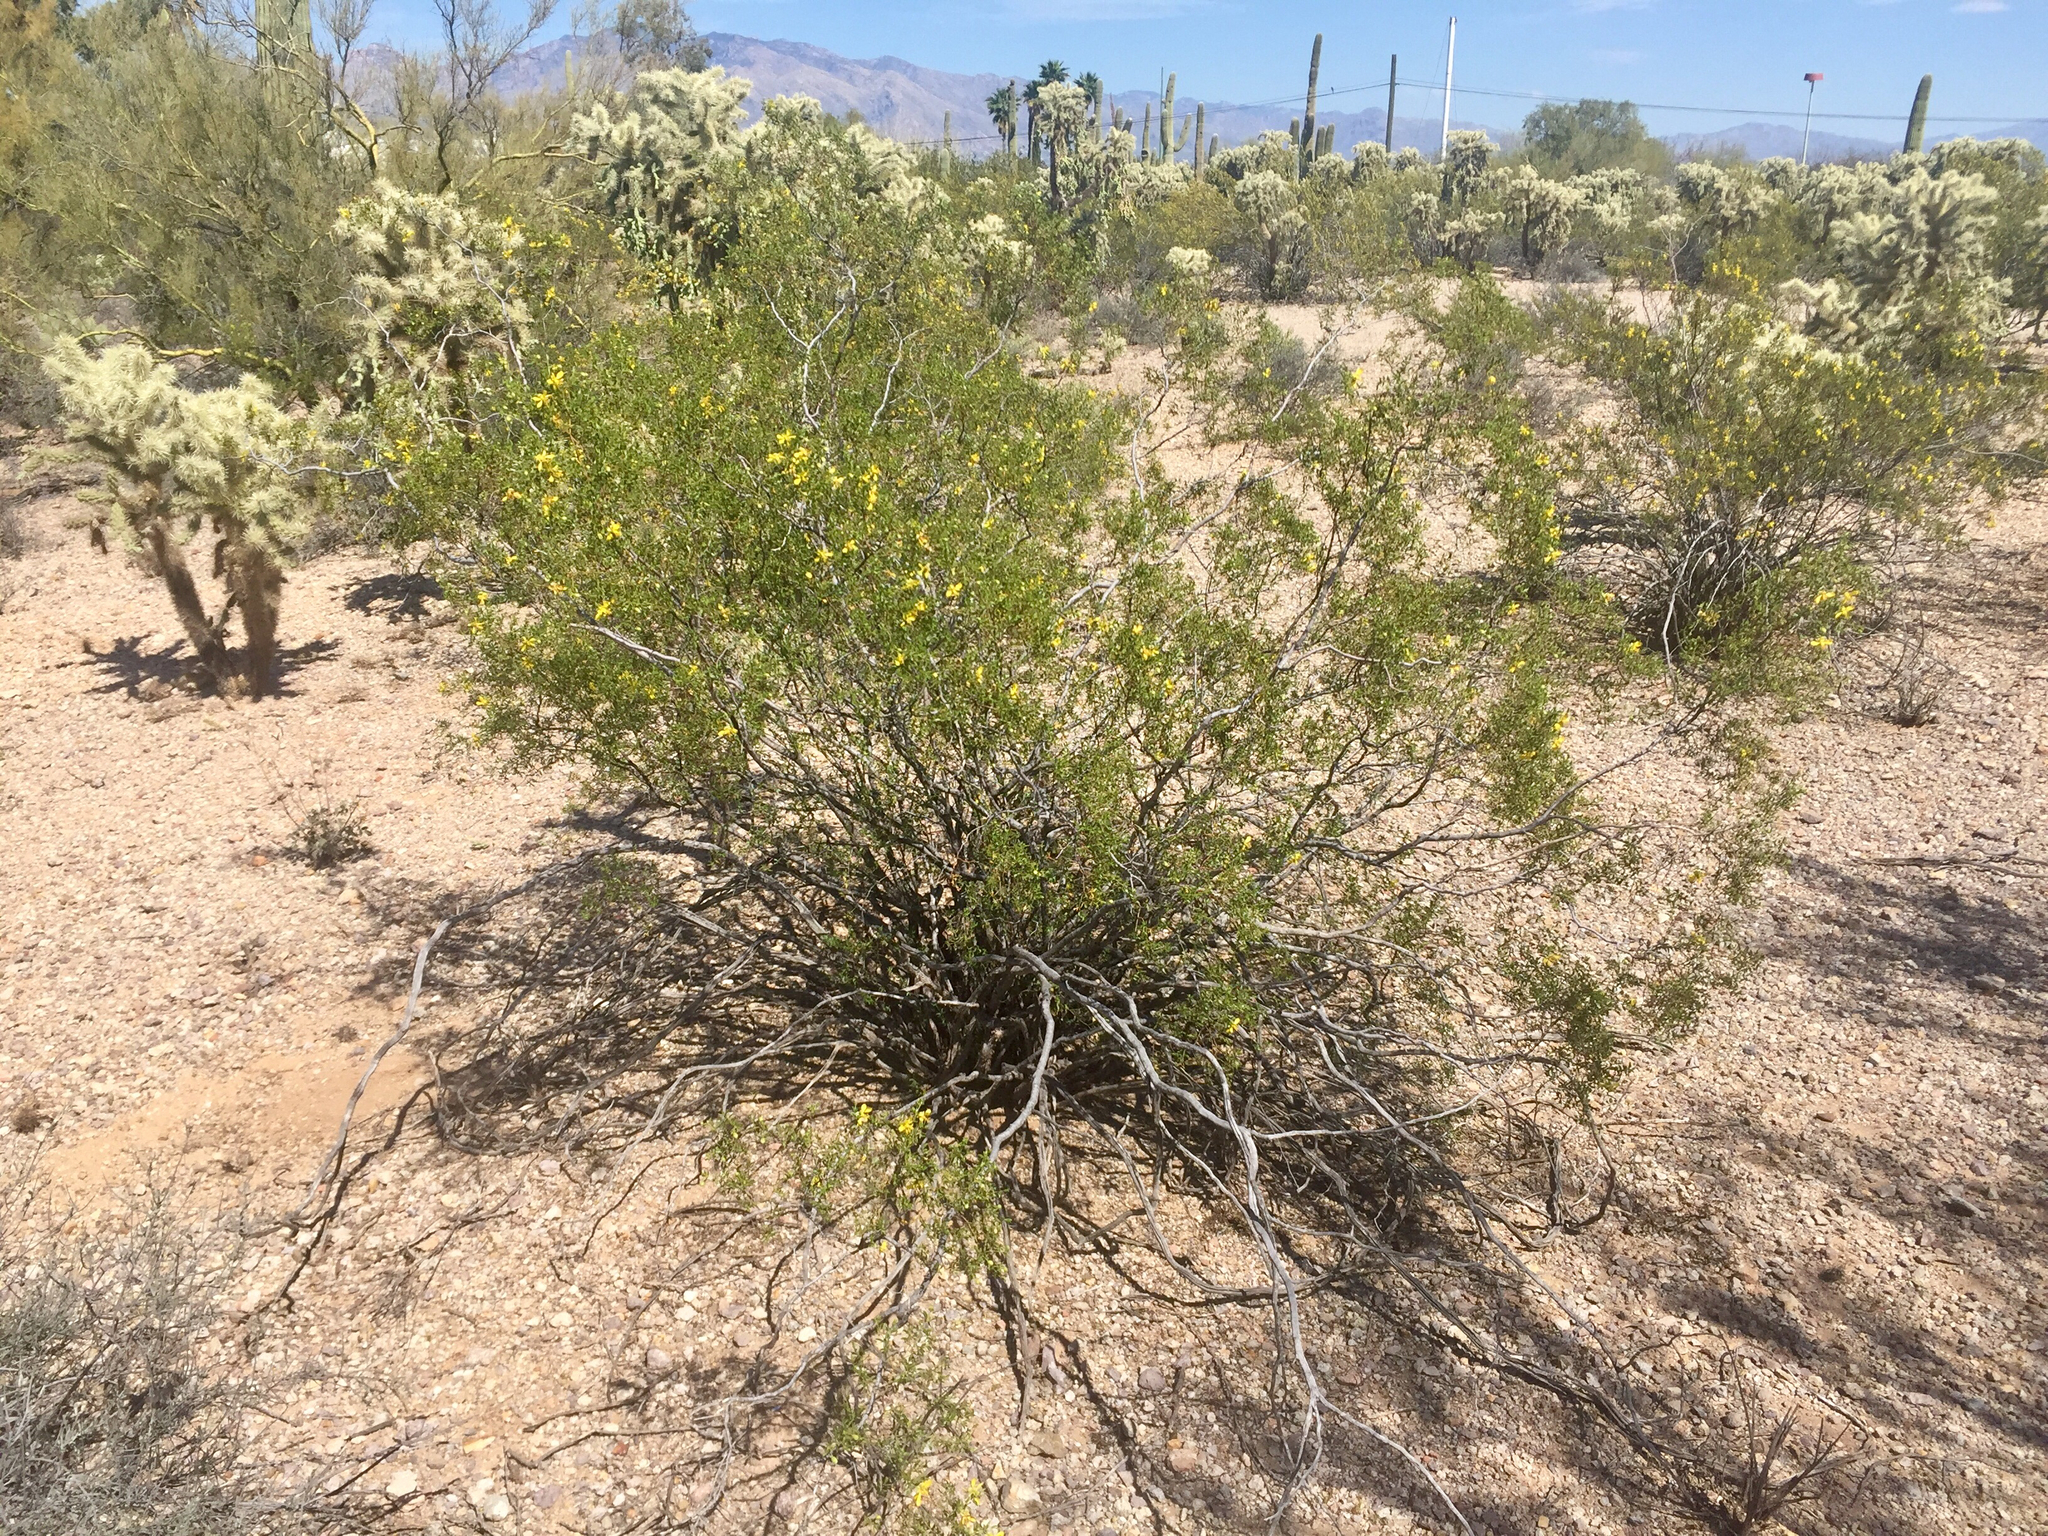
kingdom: Plantae
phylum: Tracheophyta
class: Magnoliopsida
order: Zygophyllales
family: Zygophyllaceae
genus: Larrea
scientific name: Larrea tridentata
